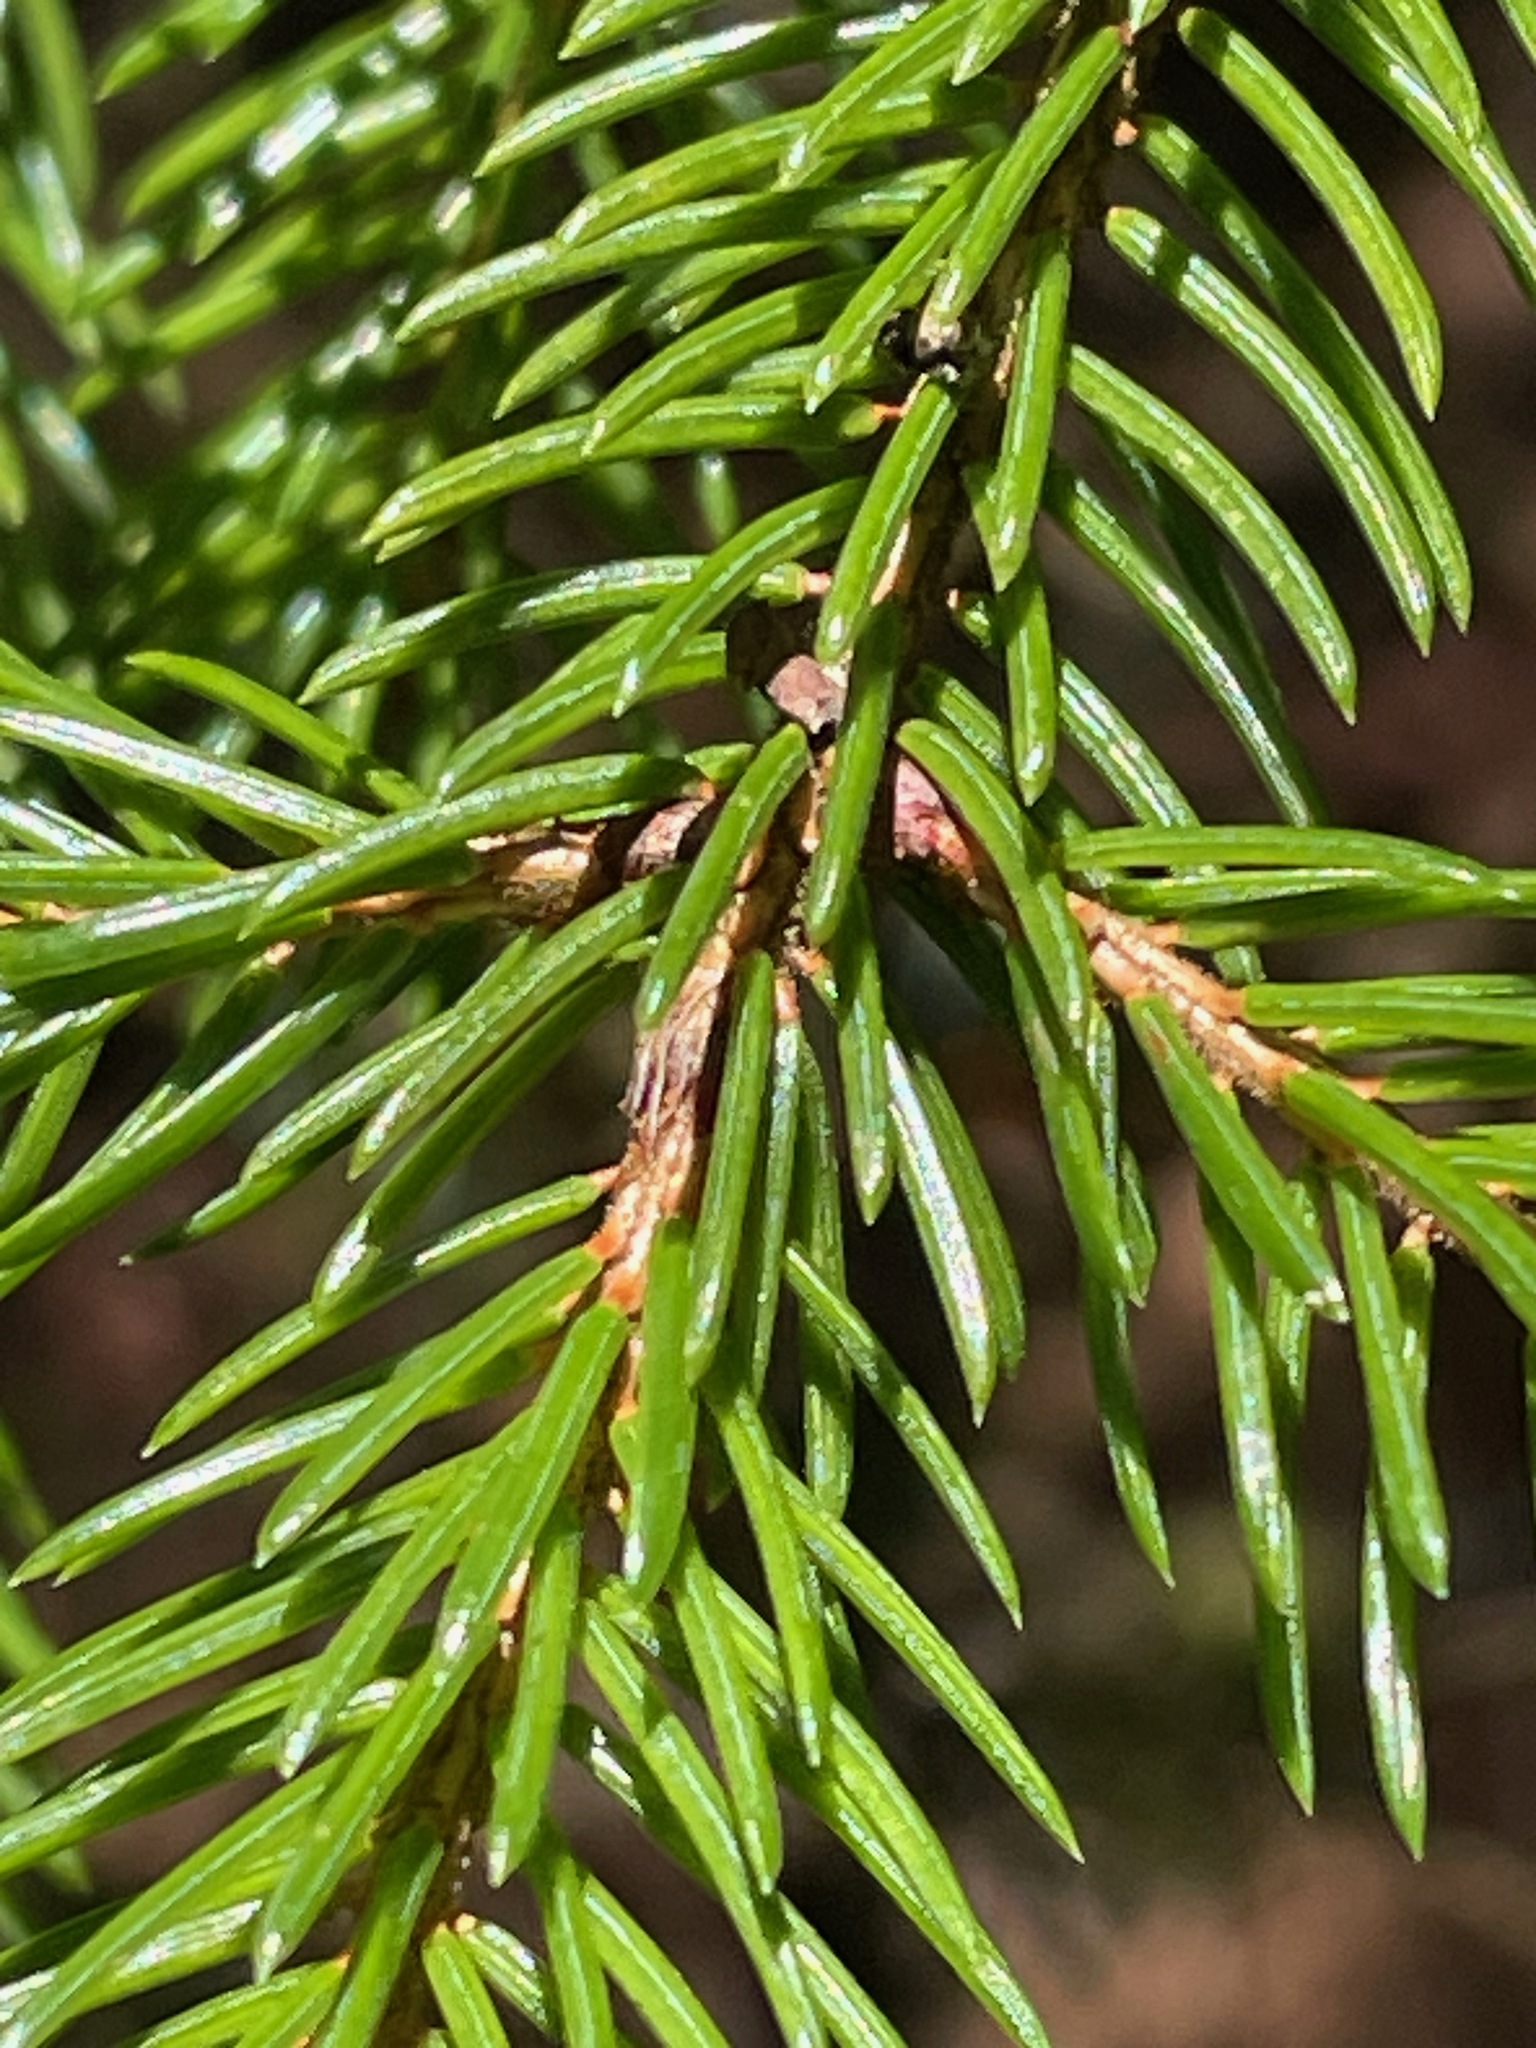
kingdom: Plantae
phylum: Tracheophyta
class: Pinopsida
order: Pinales
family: Pinaceae
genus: Picea
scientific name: Picea rubens
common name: Red spruce
